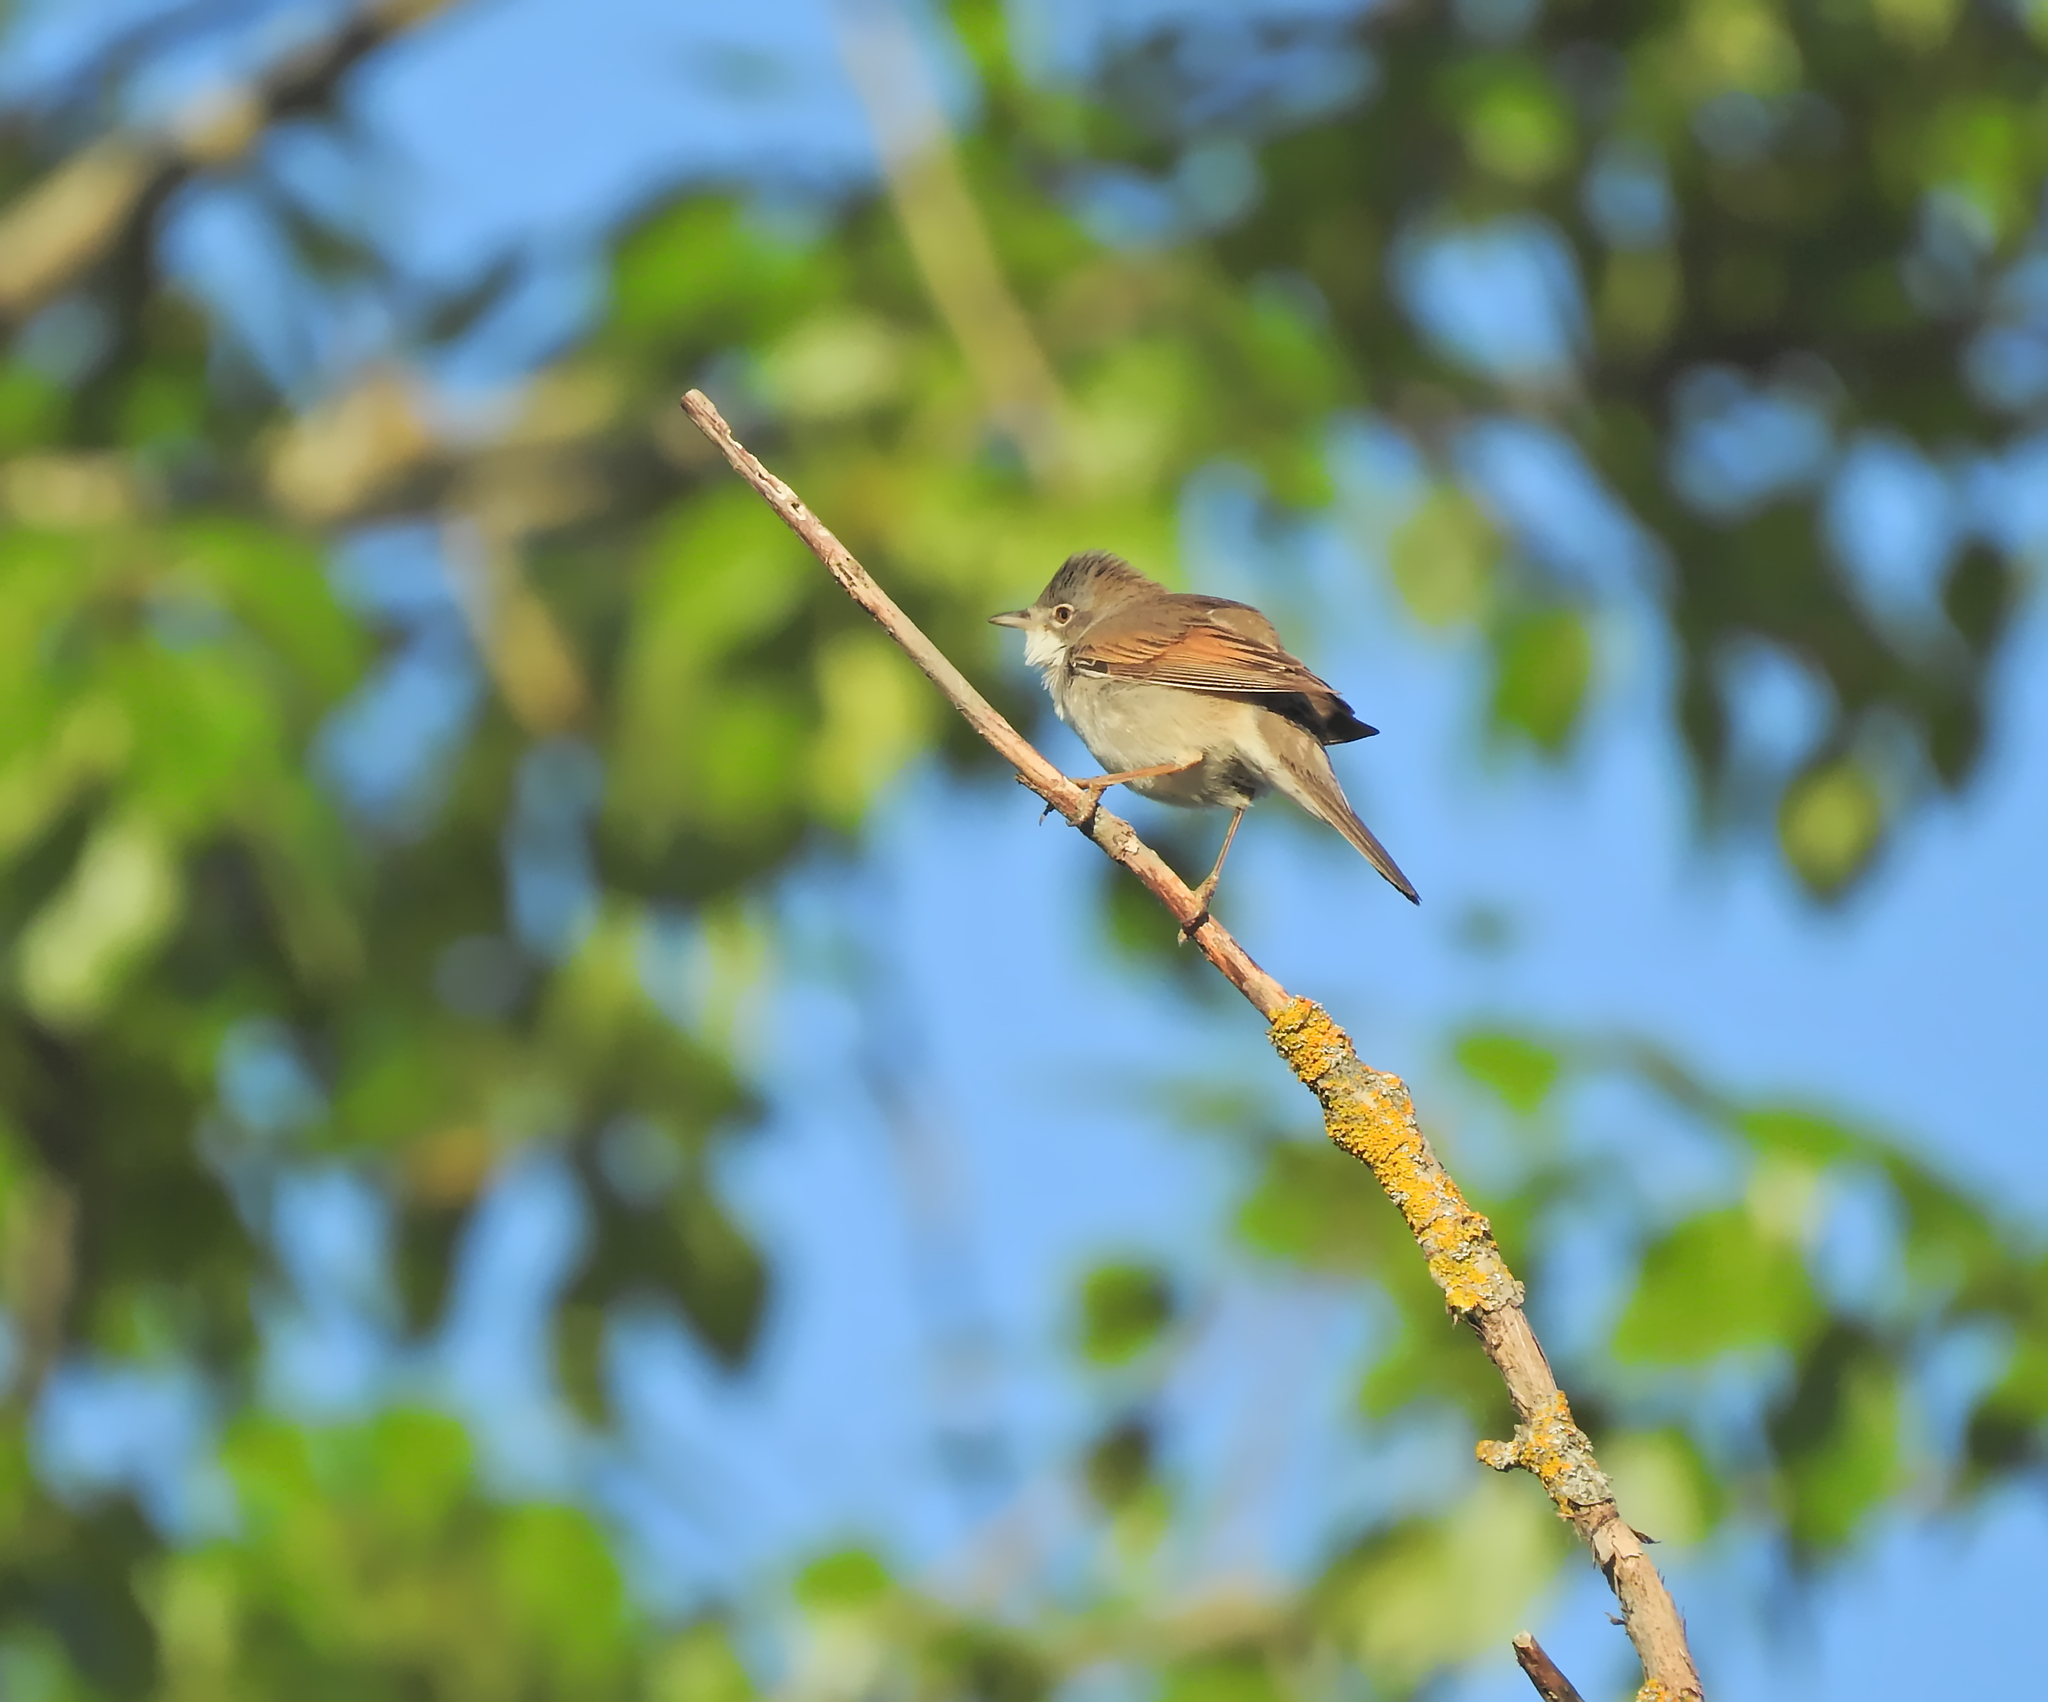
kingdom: Animalia
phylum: Chordata
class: Aves
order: Passeriformes
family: Sylviidae
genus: Sylvia
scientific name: Sylvia communis
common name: Common whitethroat
